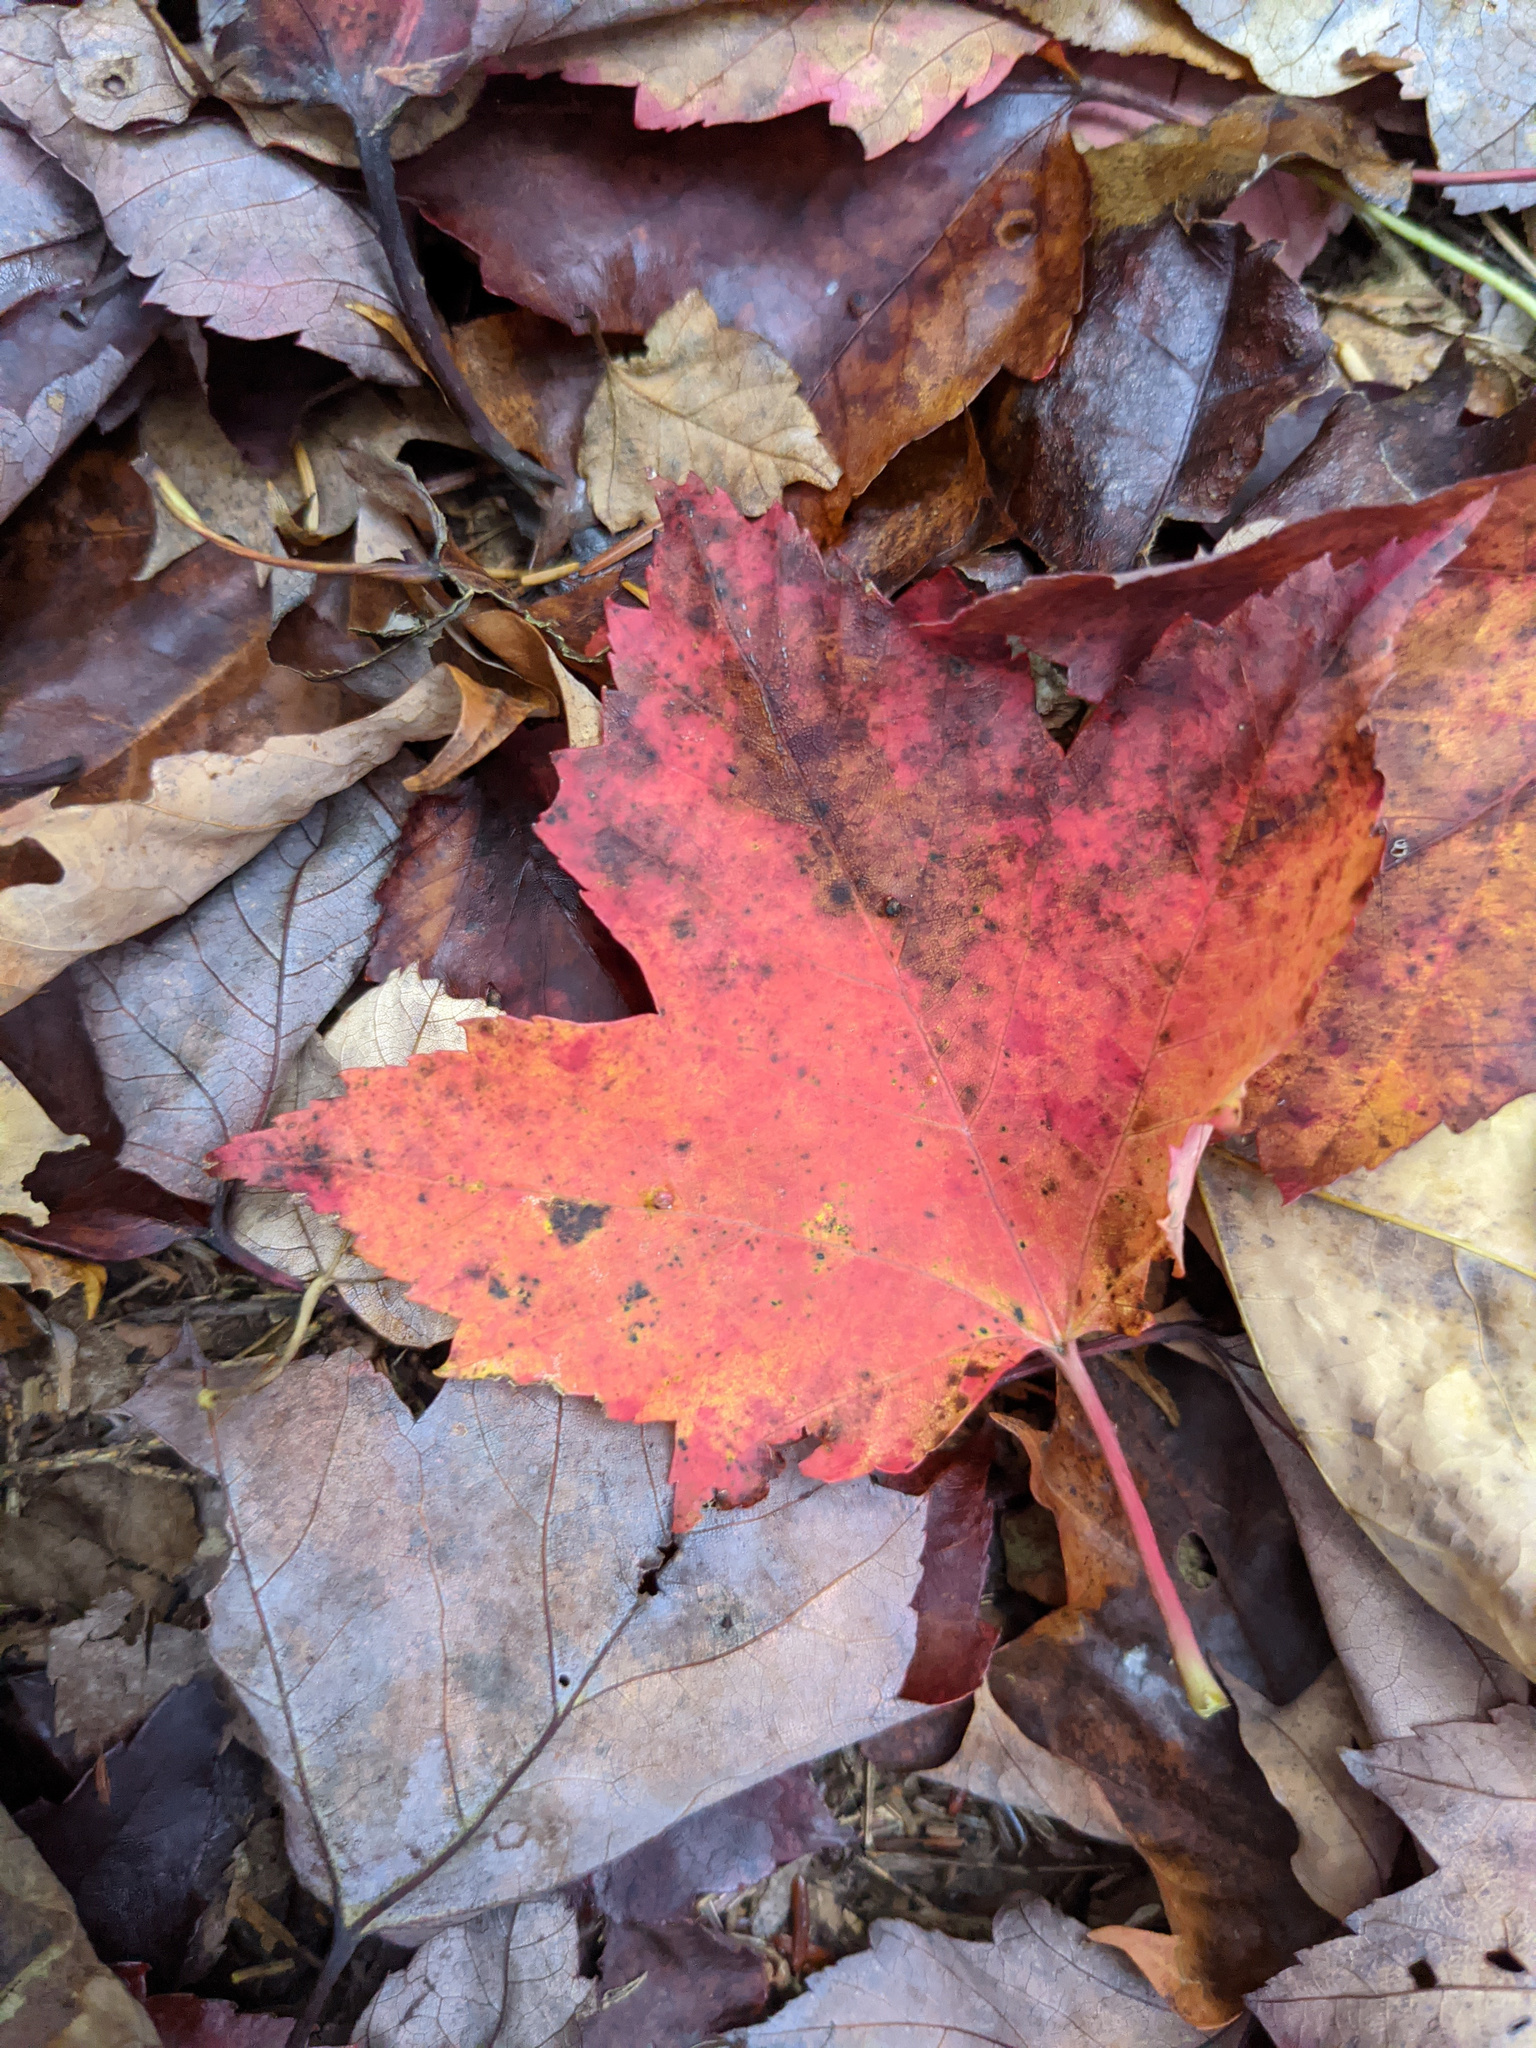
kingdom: Plantae
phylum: Tracheophyta
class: Magnoliopsida
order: Sapindales
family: Sapindaceae
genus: Acer
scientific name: Acer rubrum
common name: Red maple
